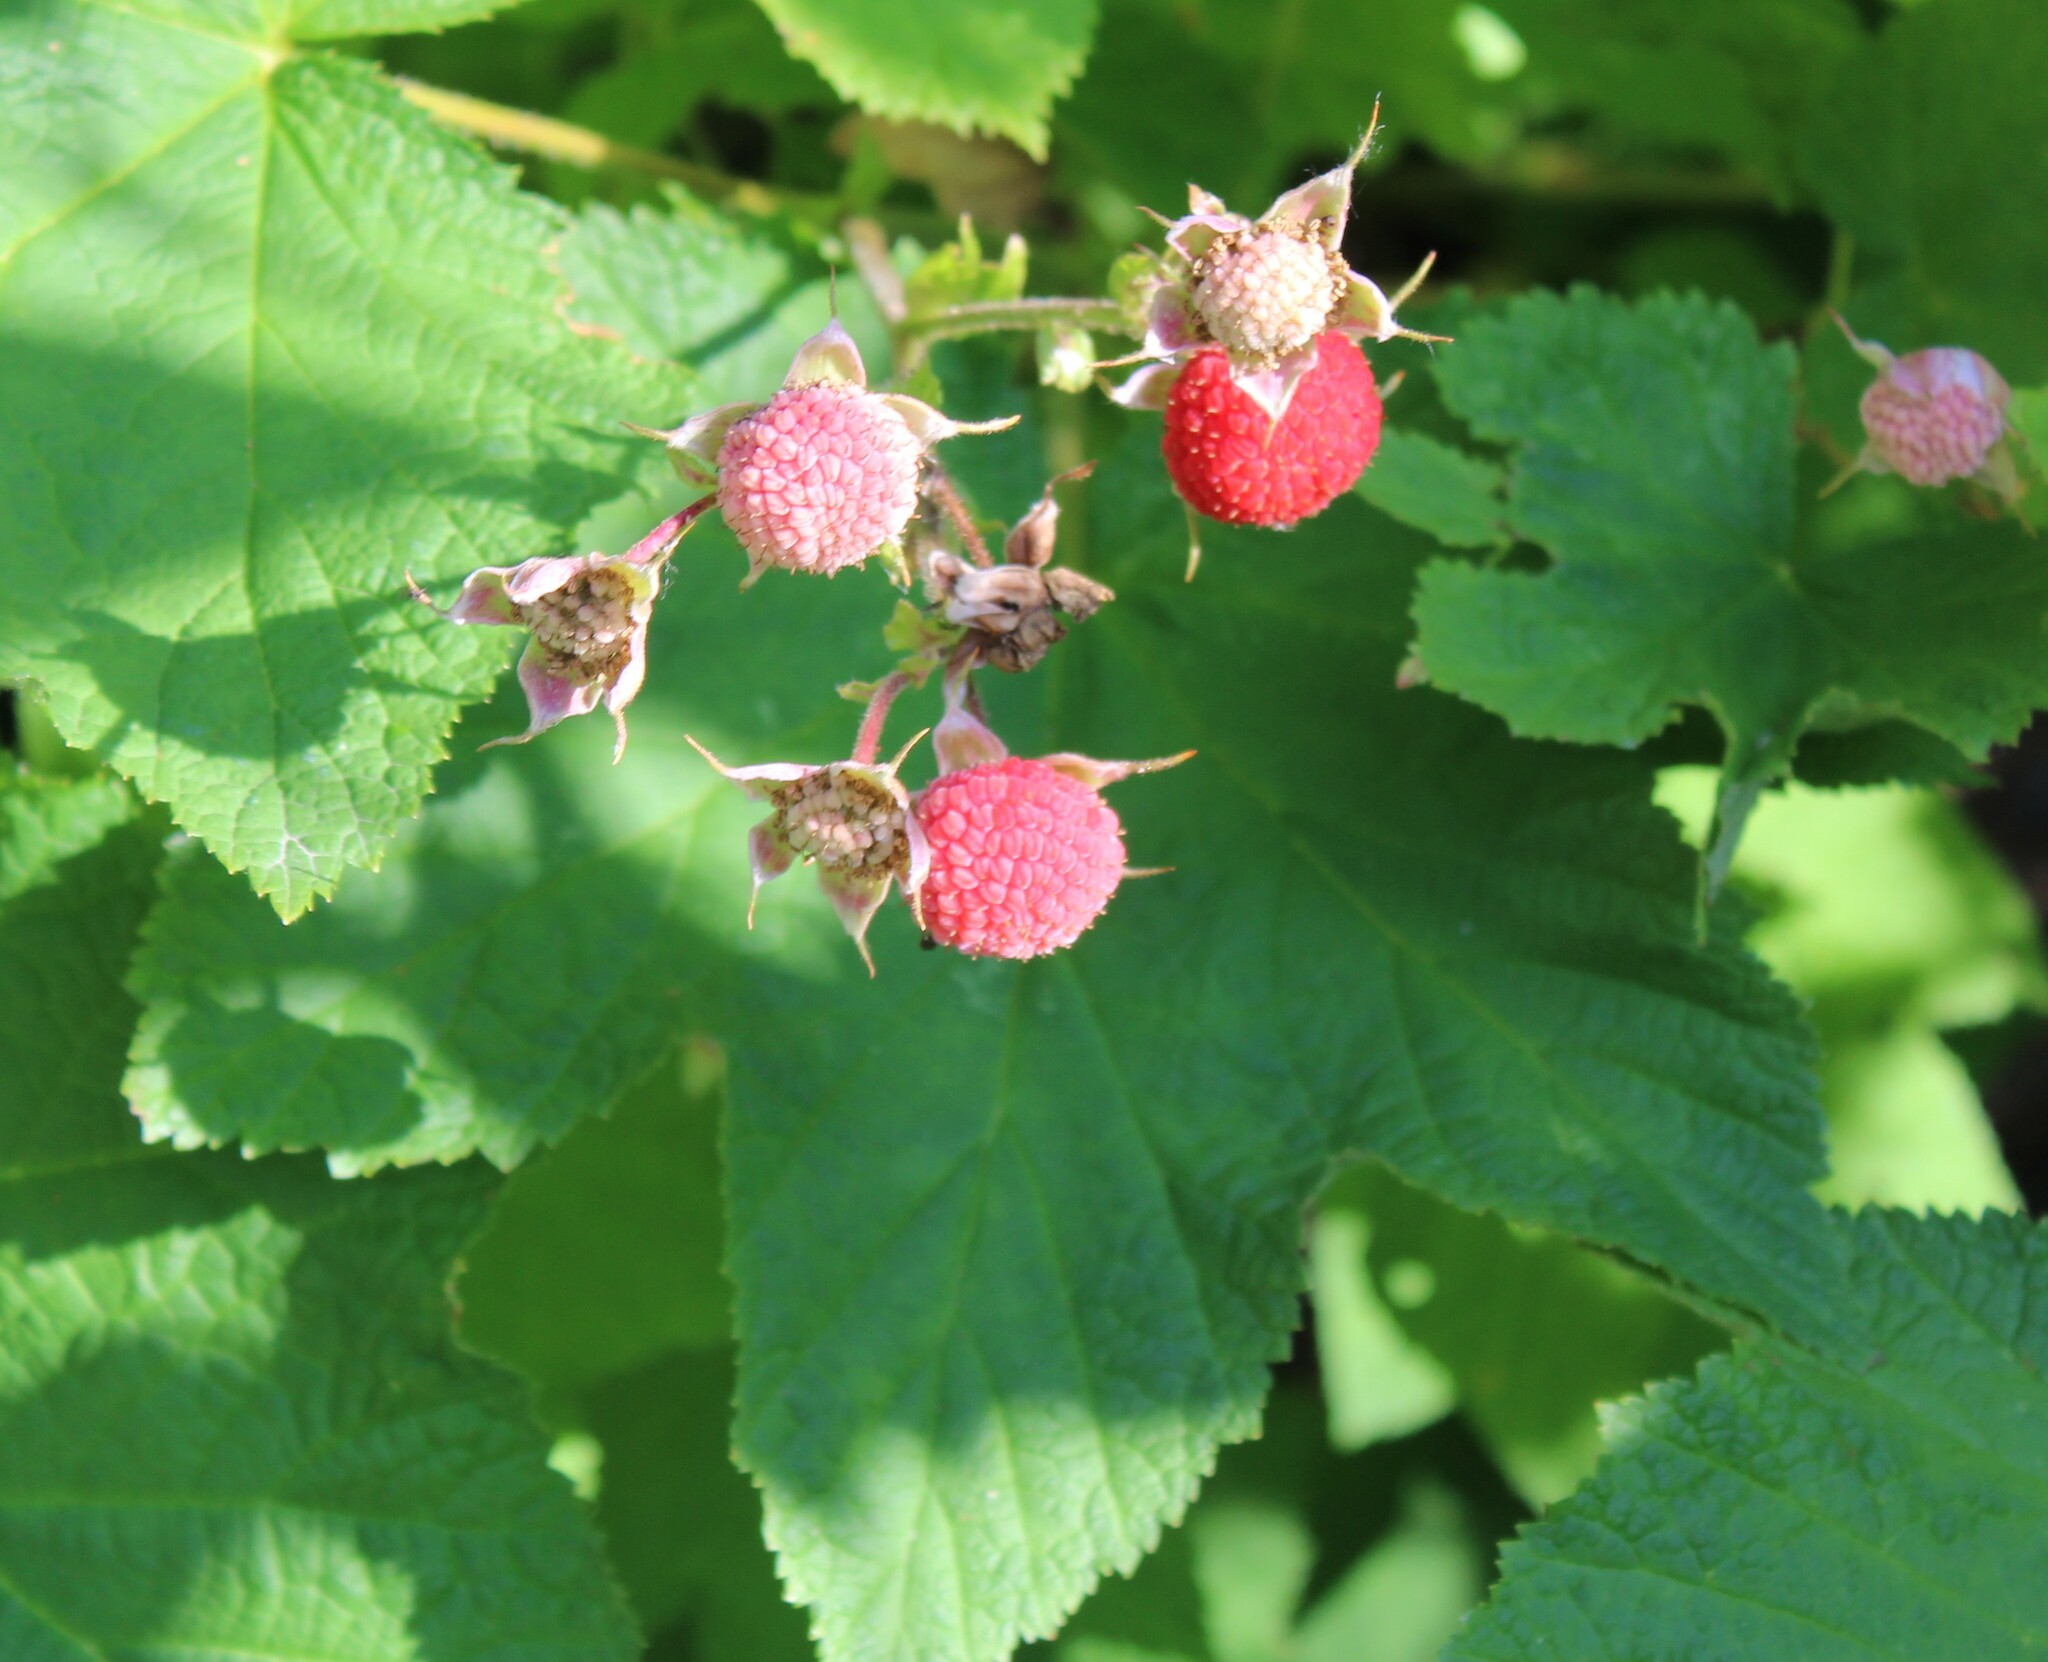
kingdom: Plantae
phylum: Tracheophyta
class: Magnoliopsida
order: Rosales
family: Rosaceae
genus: Rubus
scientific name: Rubus parviflorus
